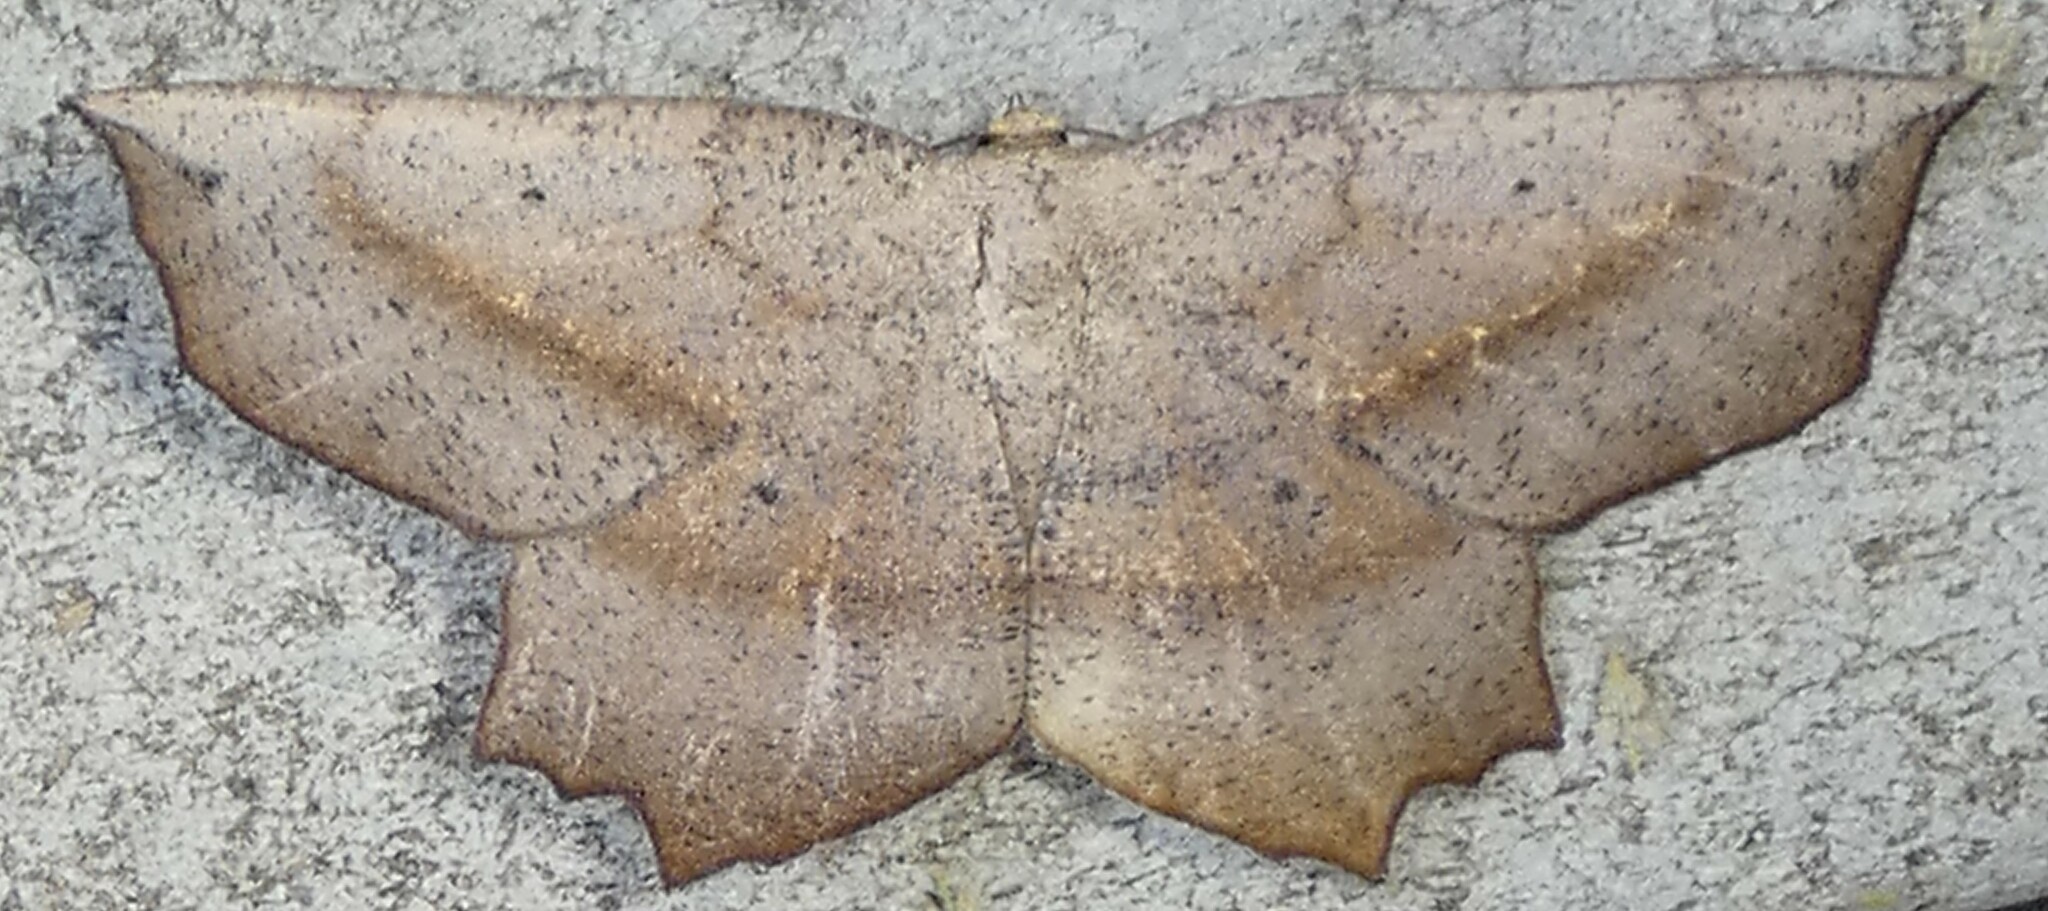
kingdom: Animalia
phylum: Arthropoda
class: Insecta
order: Lepidoptera
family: Geometridae
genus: Euchlaena
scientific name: Euchlaena obtusaria
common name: Obtuse euchlaena moth
